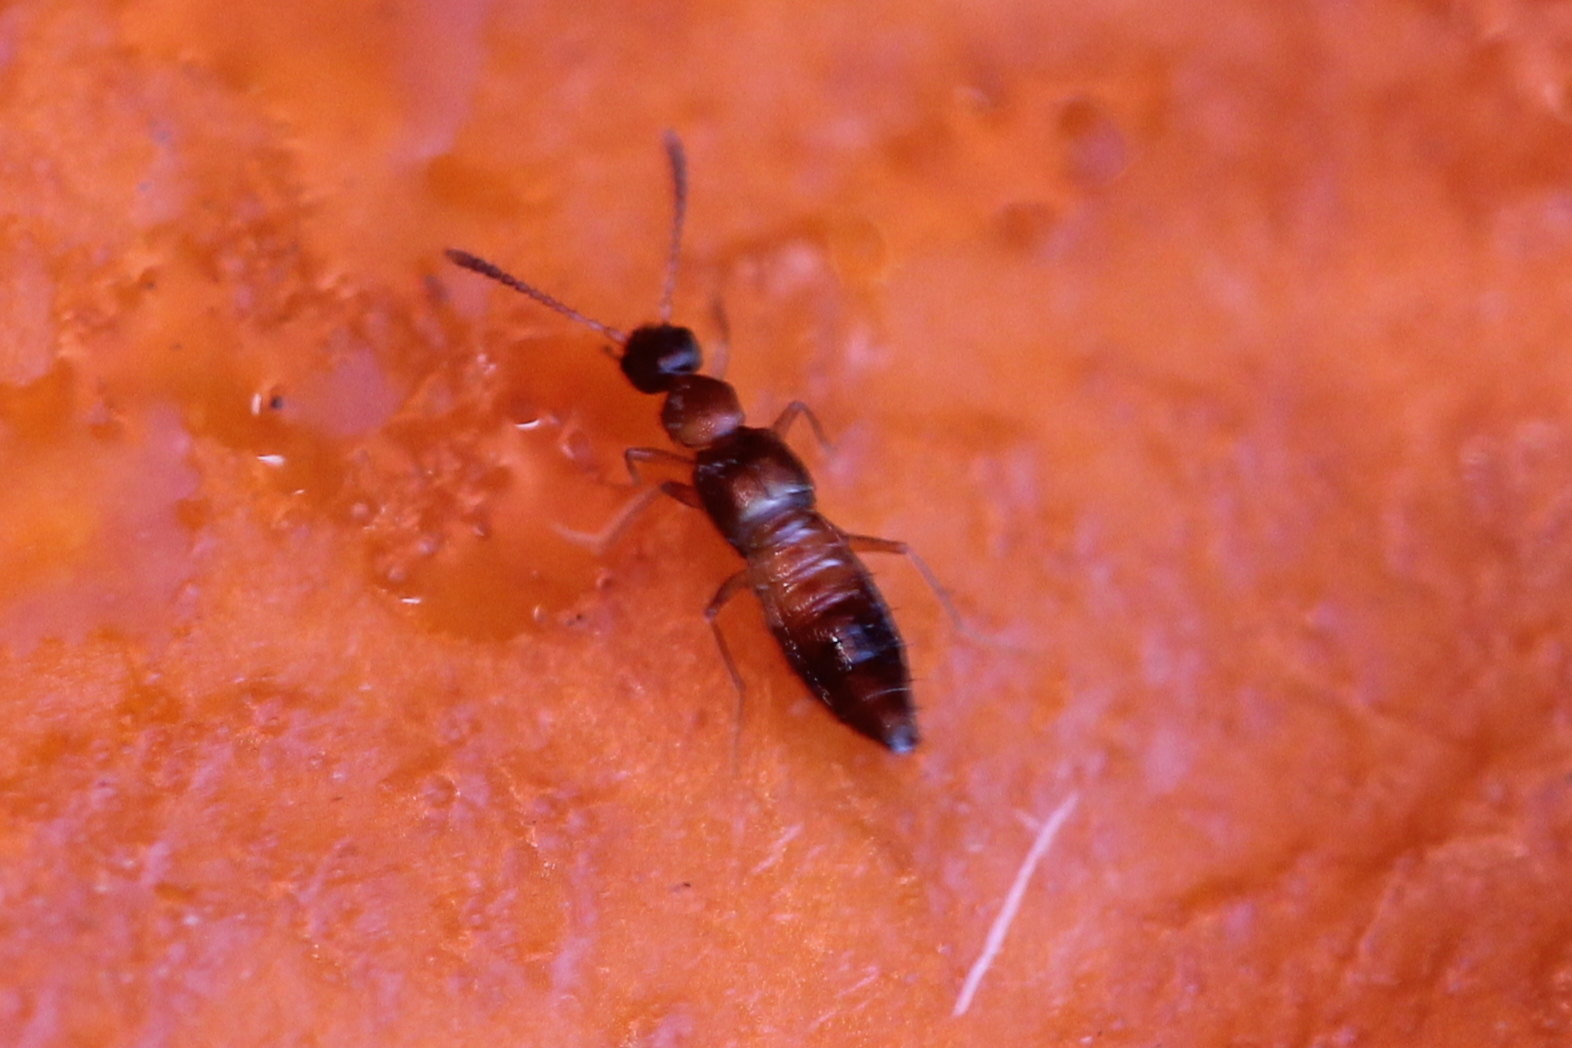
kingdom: Animalia
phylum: Arthropoda
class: Insecta
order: Coleoptera
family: Staphylinidae
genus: Meronera
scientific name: Meronera venustula
